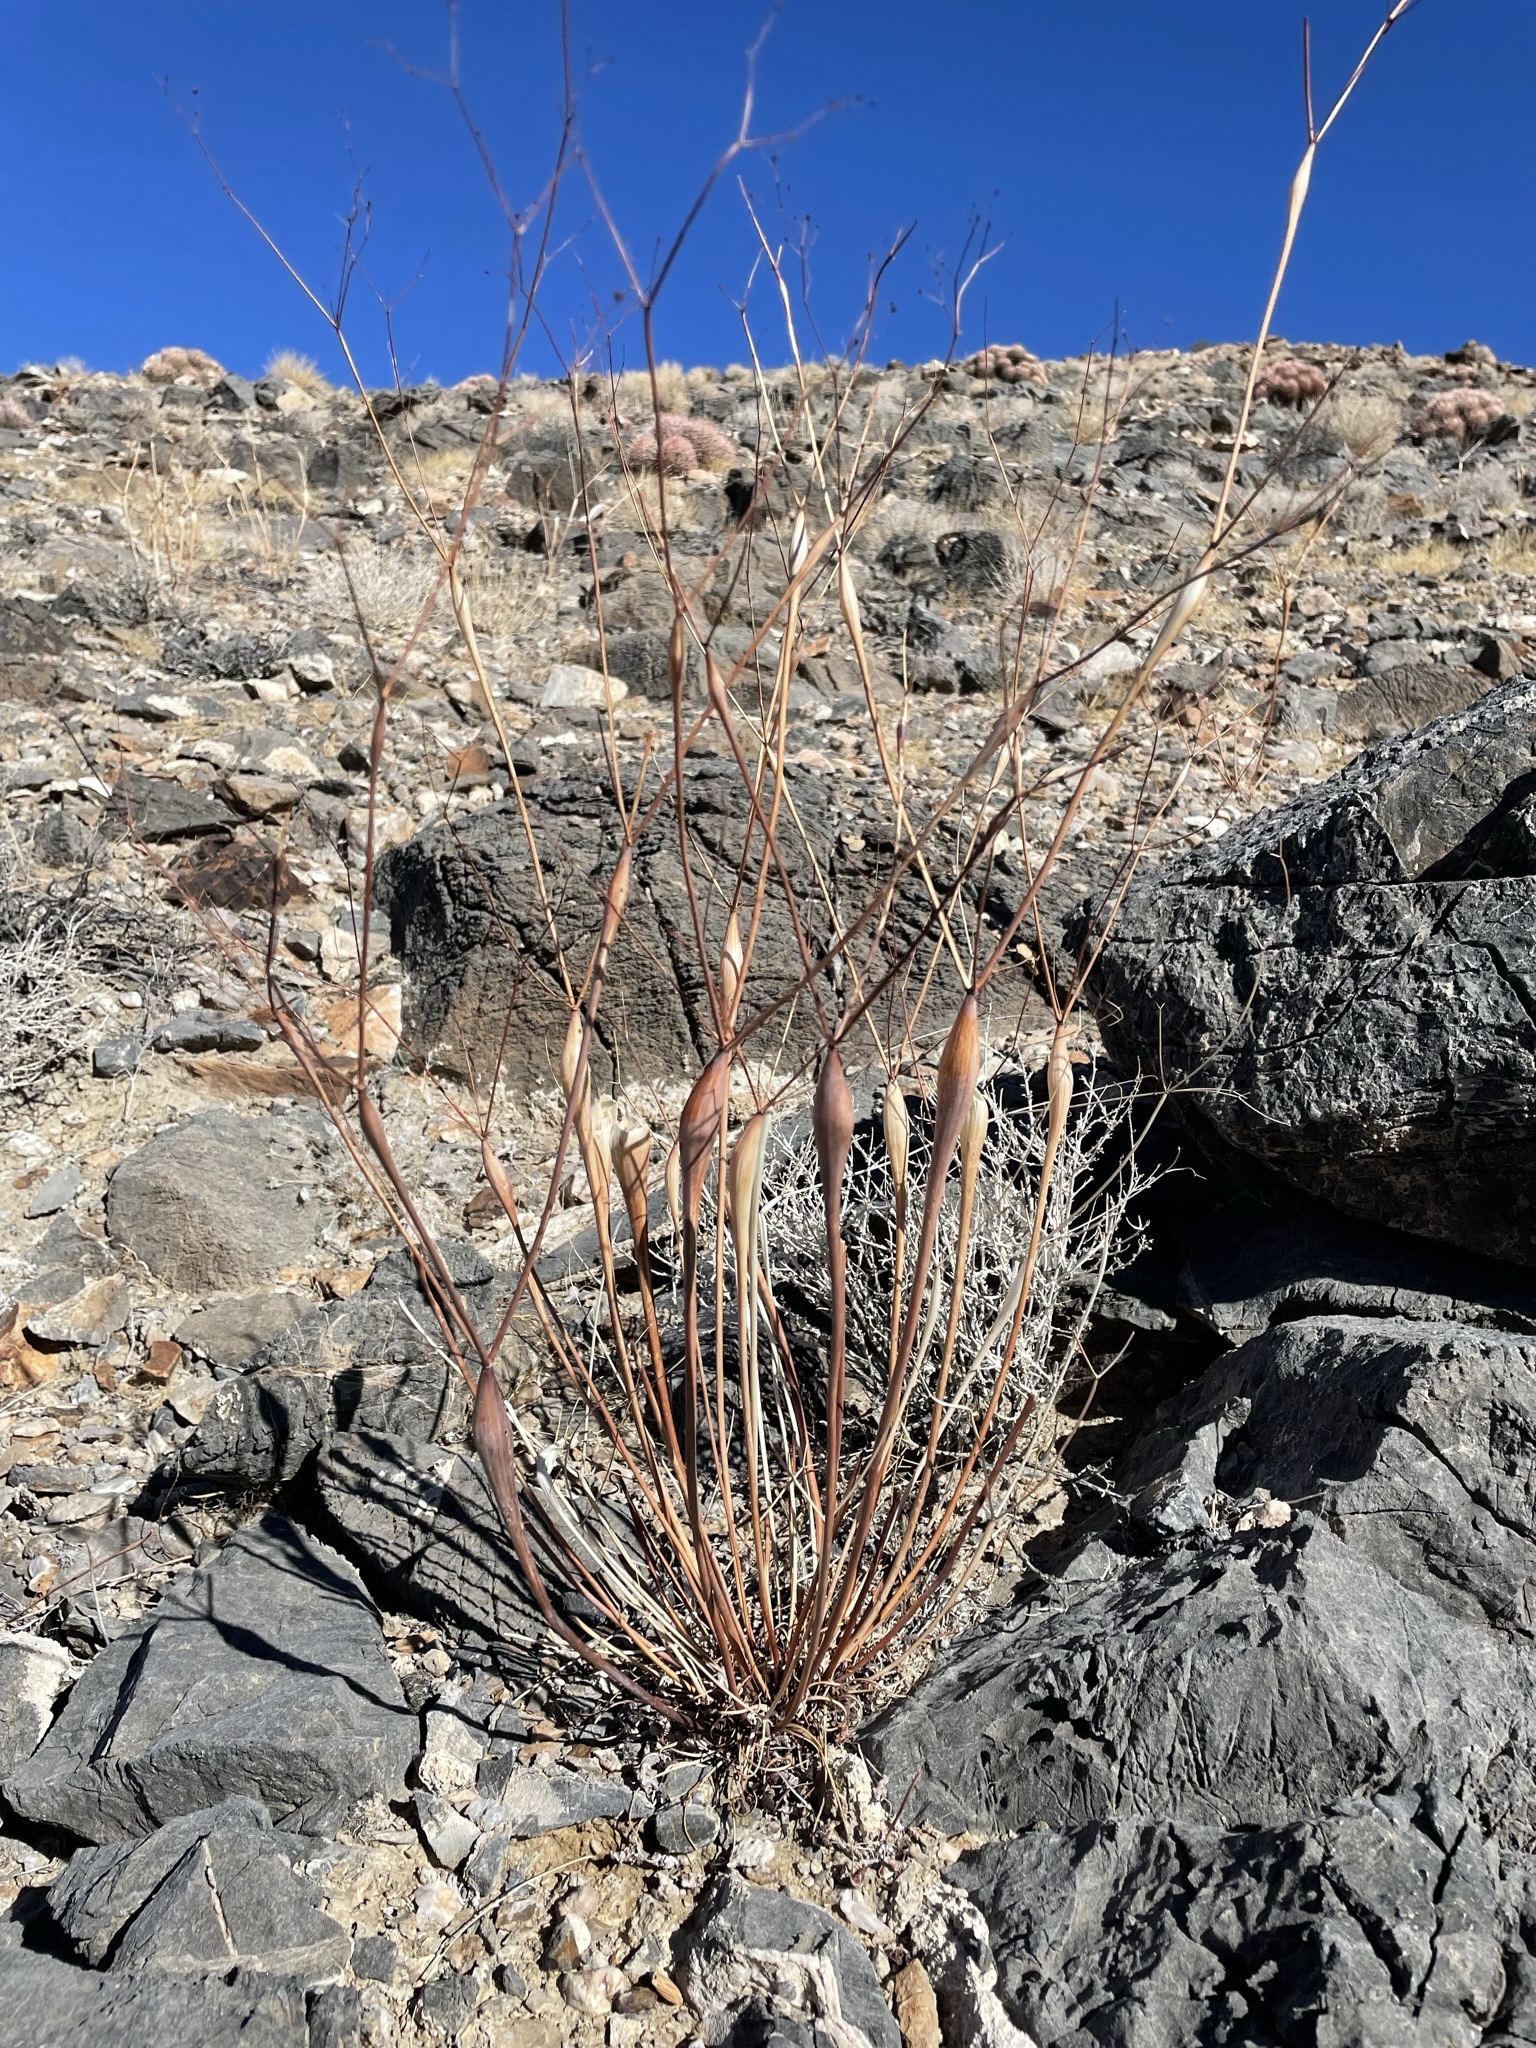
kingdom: Plantae
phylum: Tracheophyta
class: Magnoliopsida
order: Caryophyllales
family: Polygonaceae
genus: Eriogonum
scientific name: Eriogonum inflatum
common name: Desert trumpet
